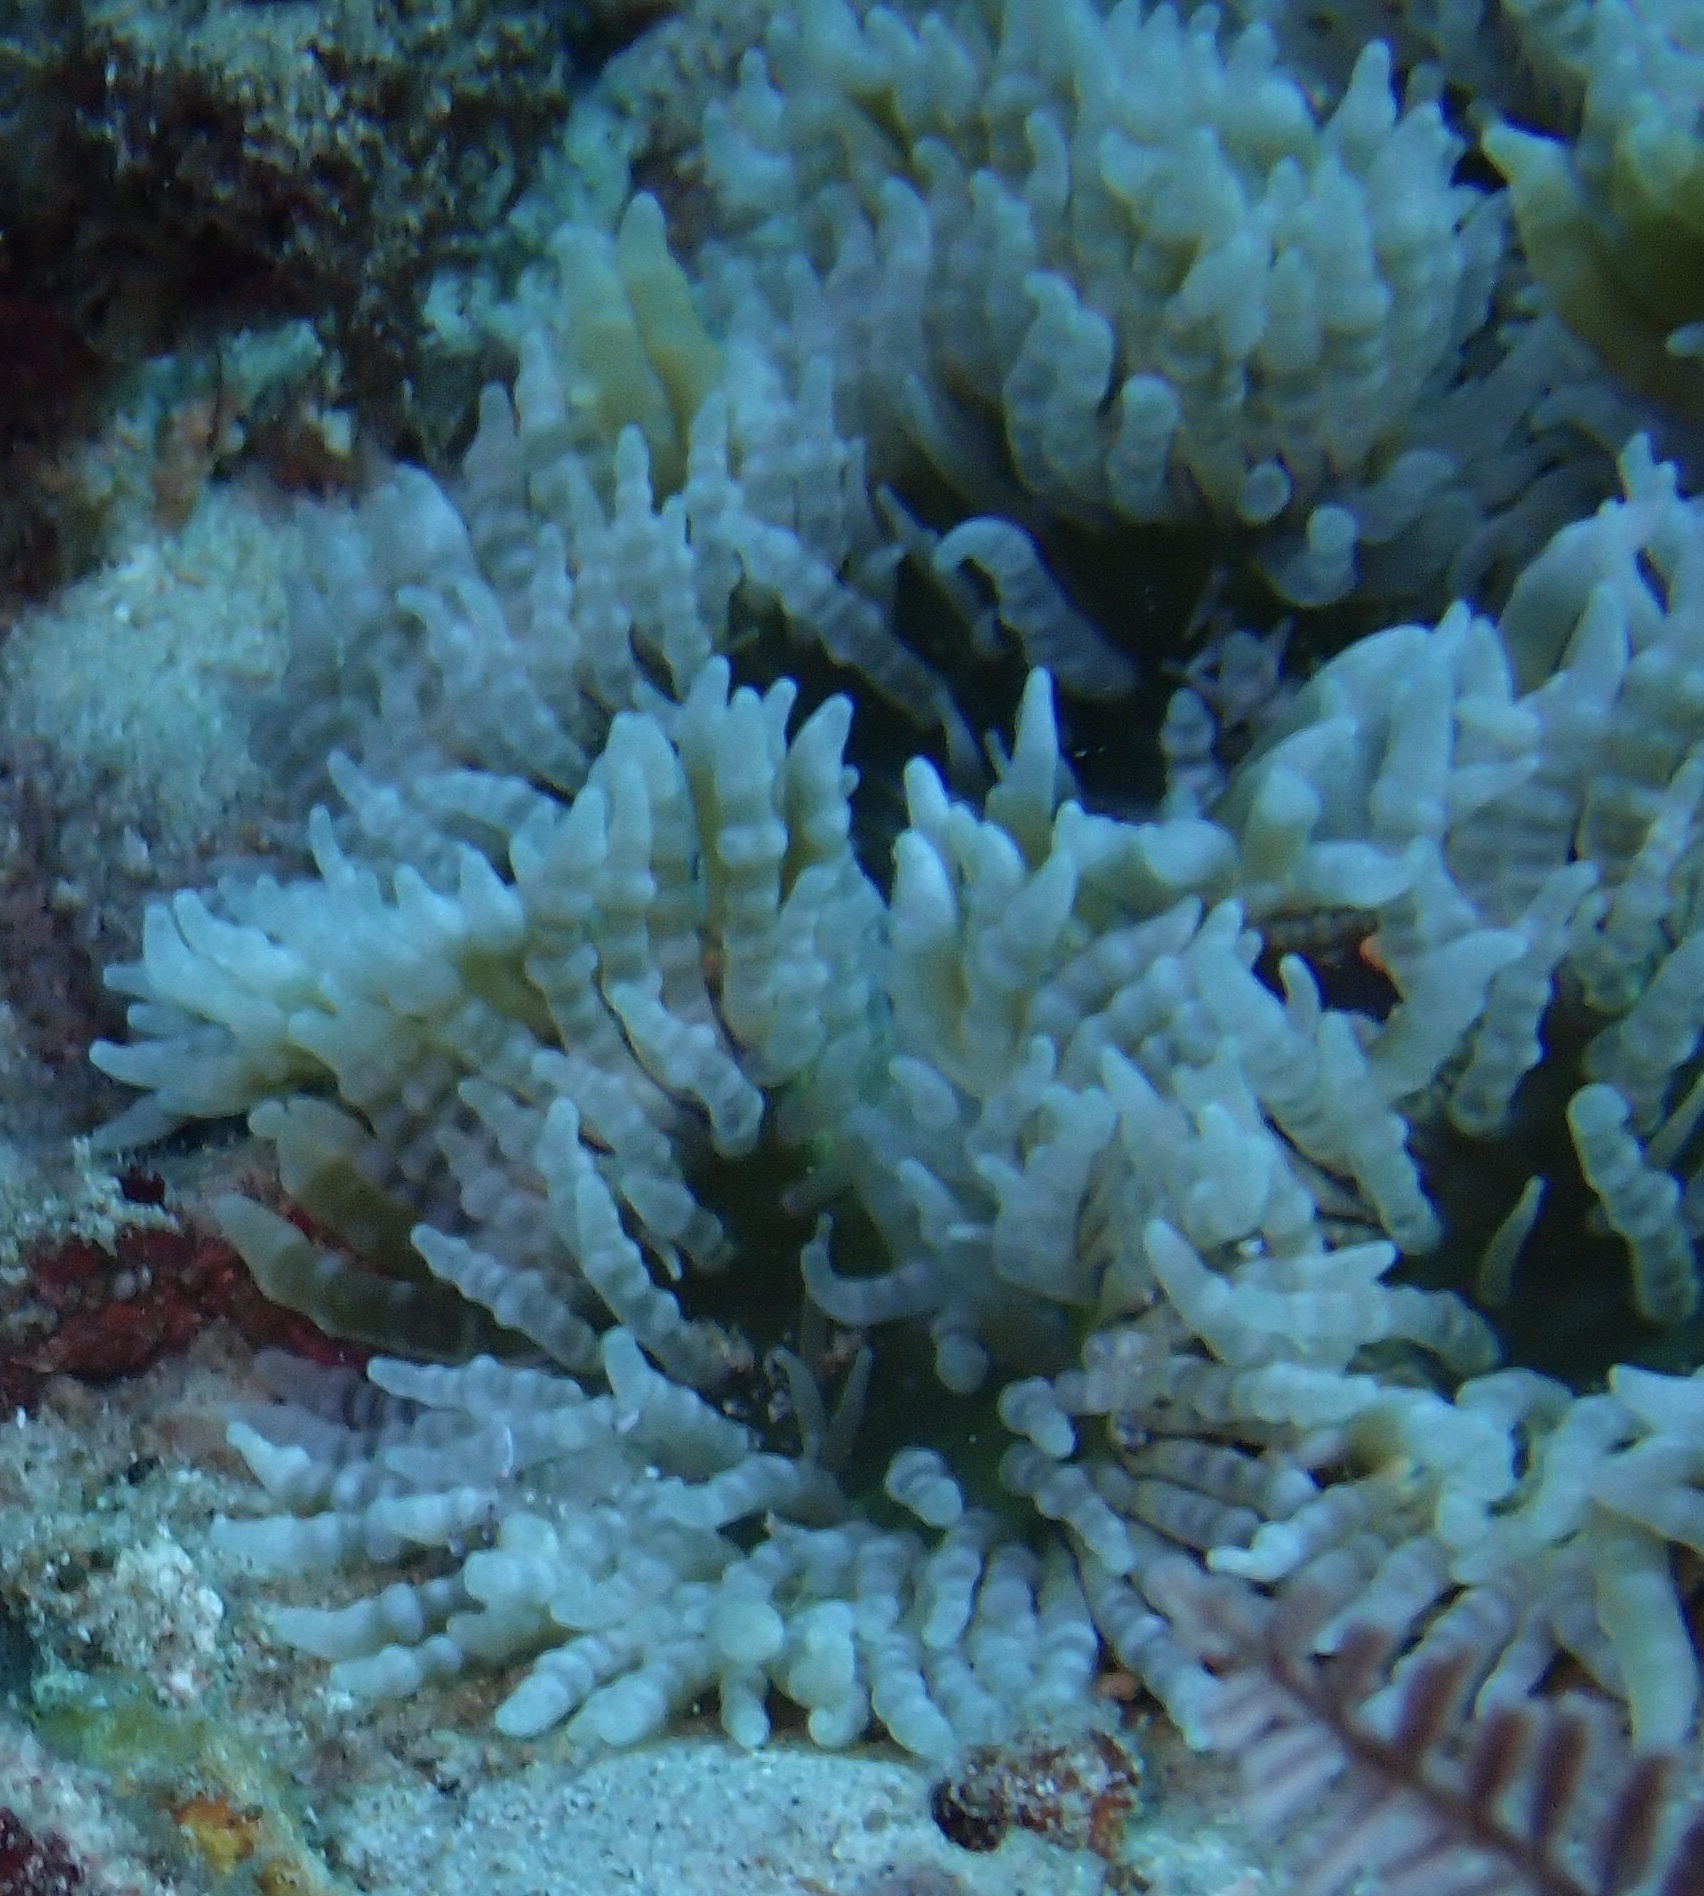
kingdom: Animalia
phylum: Cnidaria
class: Anthozoa
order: Actiniaria
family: Heteractidae
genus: Heteractis
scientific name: Heteractis aurora
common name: Beaded sea anemone
